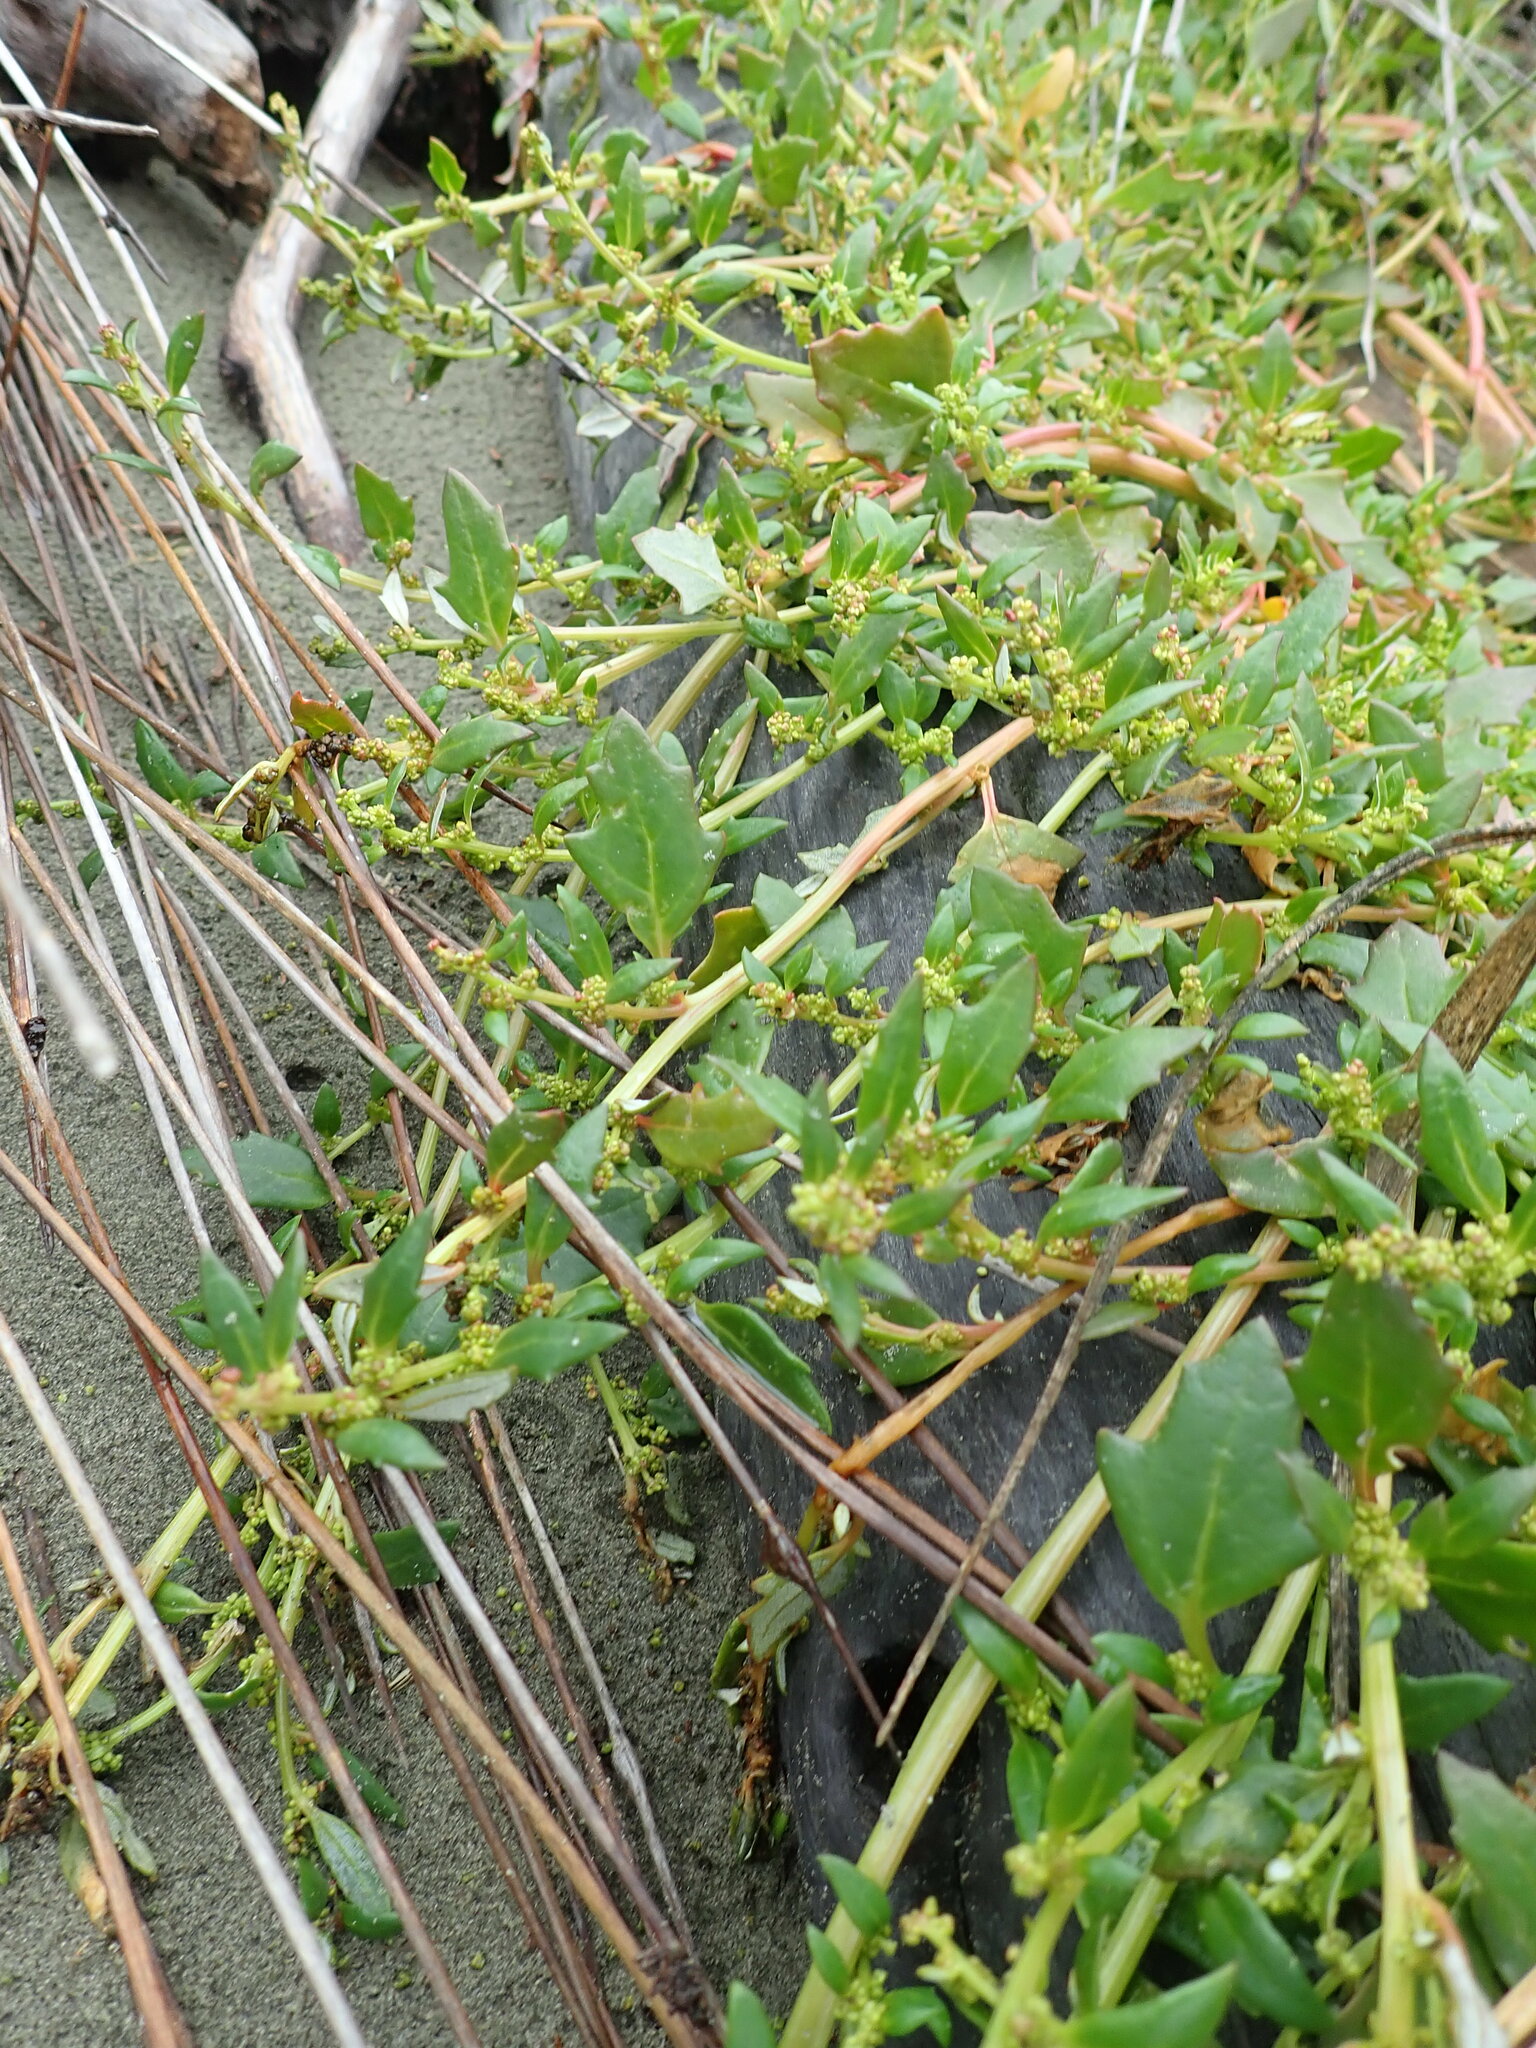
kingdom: Plantae
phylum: Tracheophyta
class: Magnoliopsida
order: Caryophyllales
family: Amaranthaceae
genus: Oxybasis
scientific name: Oxybasis ambigua
